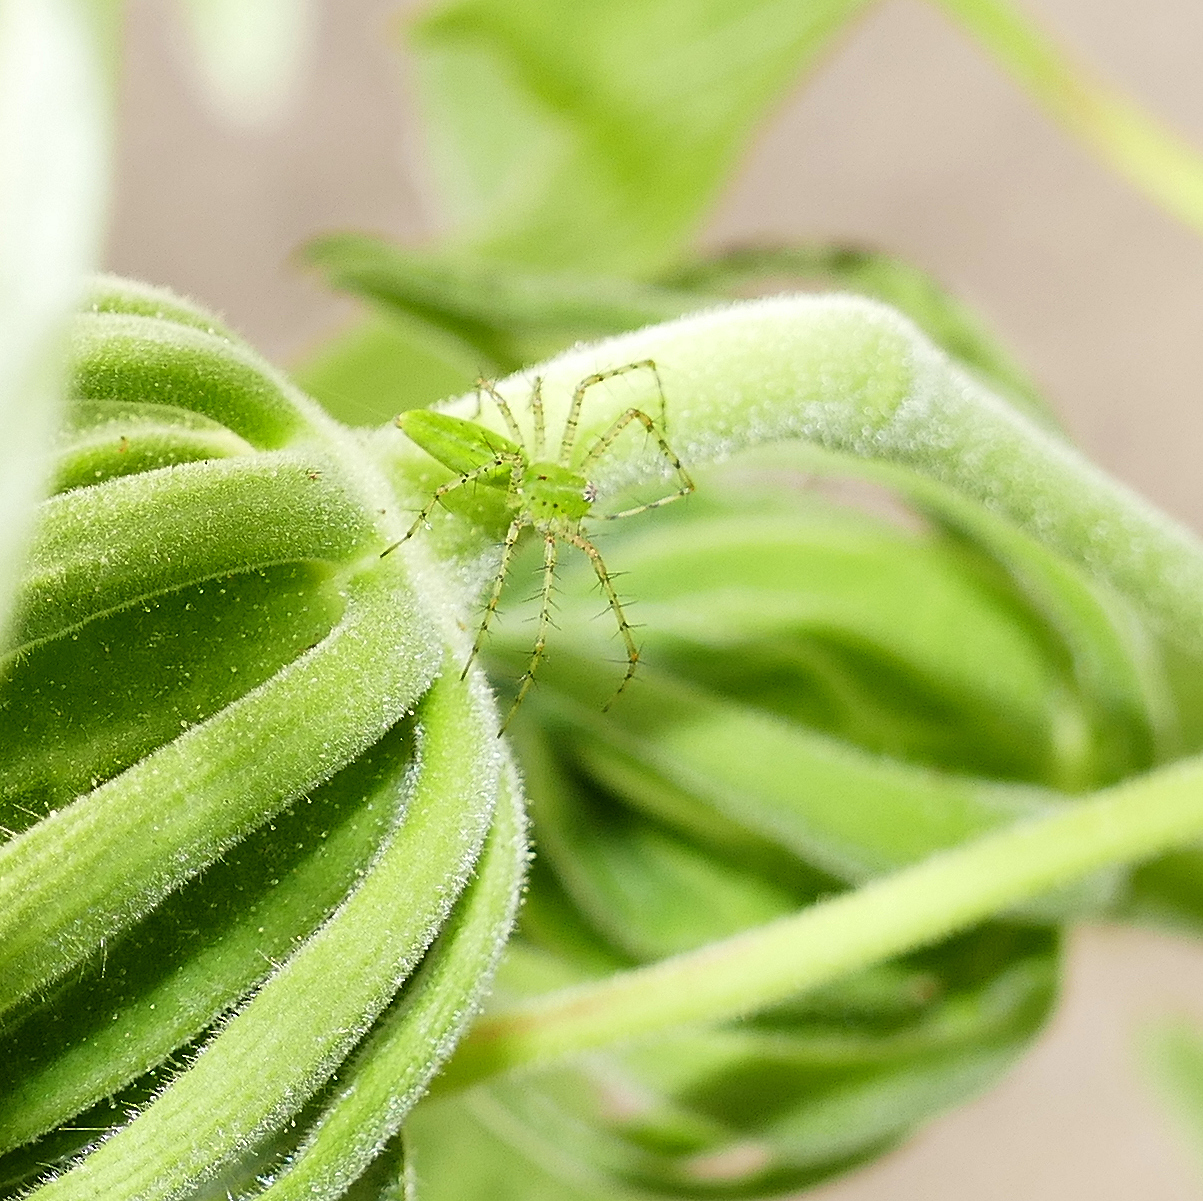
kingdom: Animalia
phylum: Arthropoda
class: Arachnida
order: Araneae
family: Oxyopidae
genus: Peucetia
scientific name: Peucetia viridans
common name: Lynx spiders
